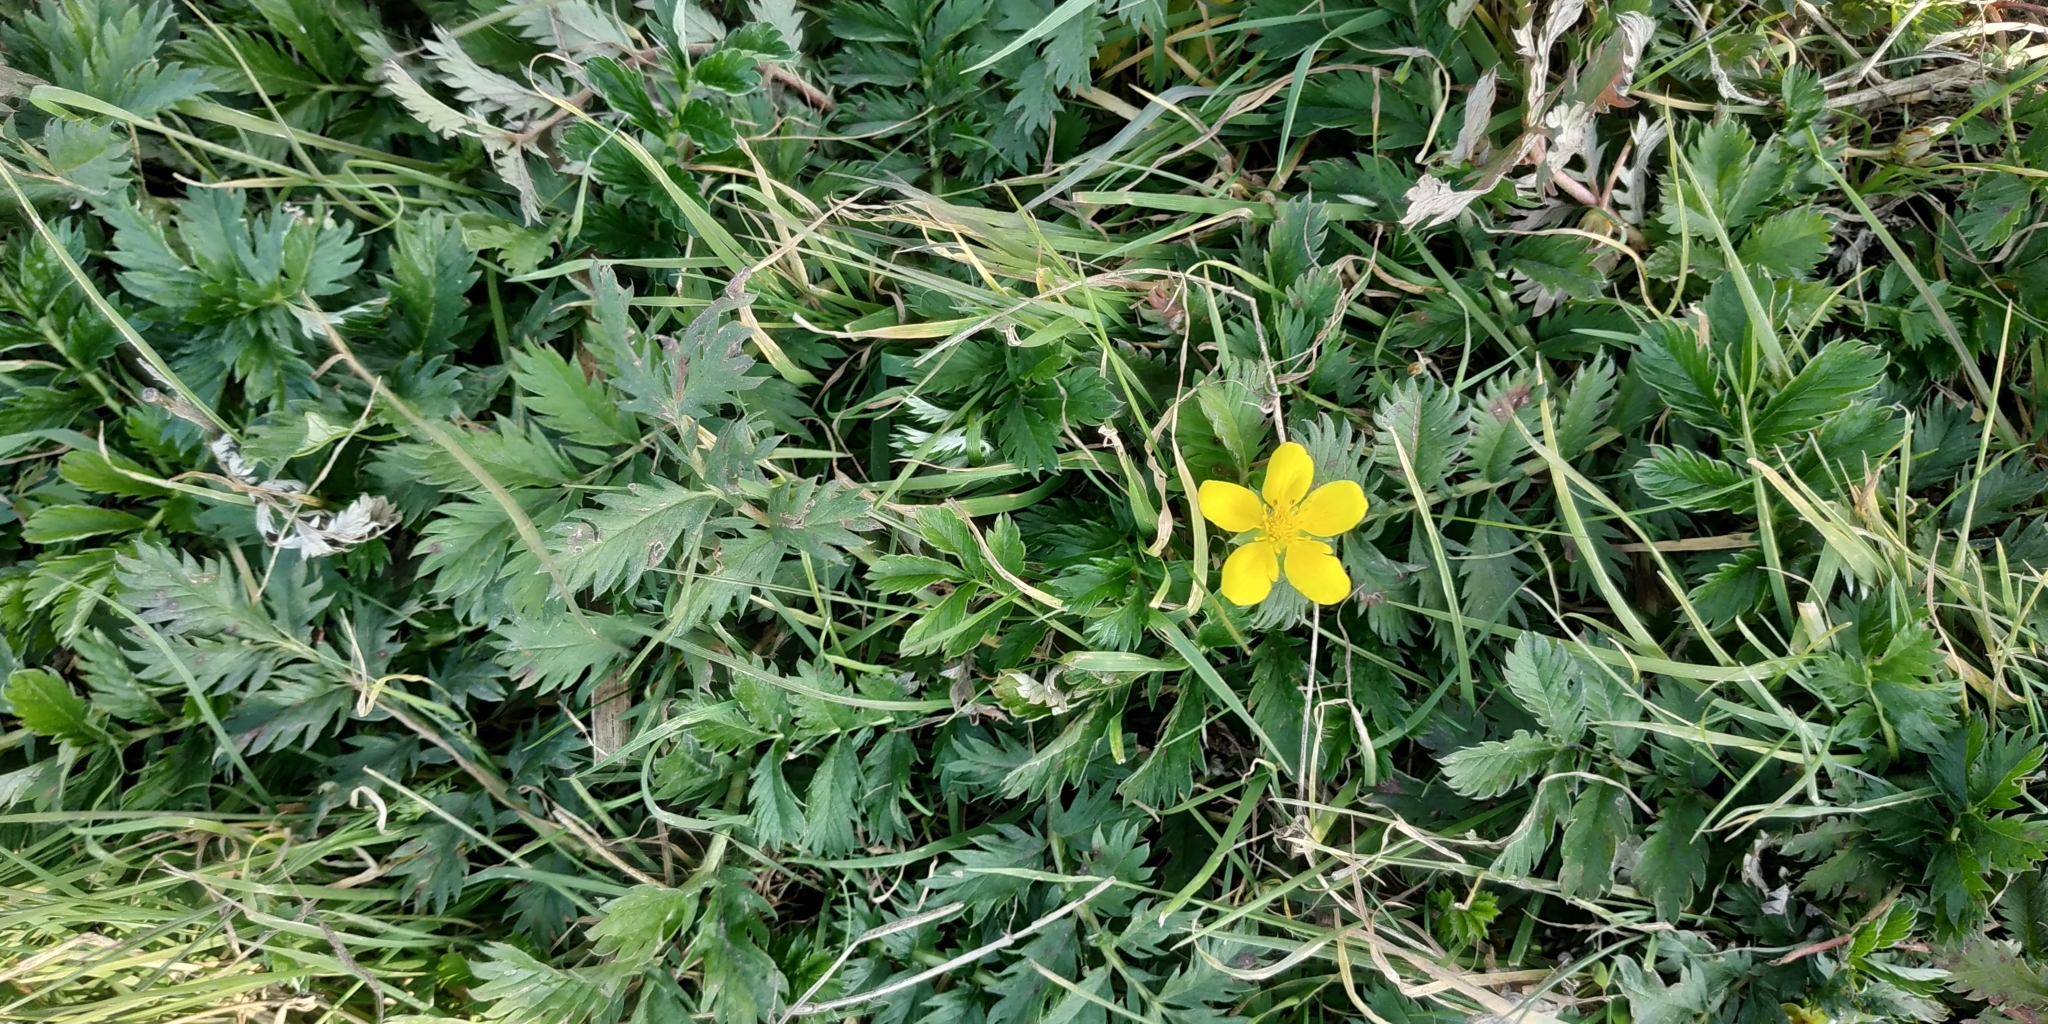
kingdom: Plantae
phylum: Tracheophyta
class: Magnoliopsida
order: Rosales
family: Rosaceae
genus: Argentina
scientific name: Argentina anserina
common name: Common silverweed
